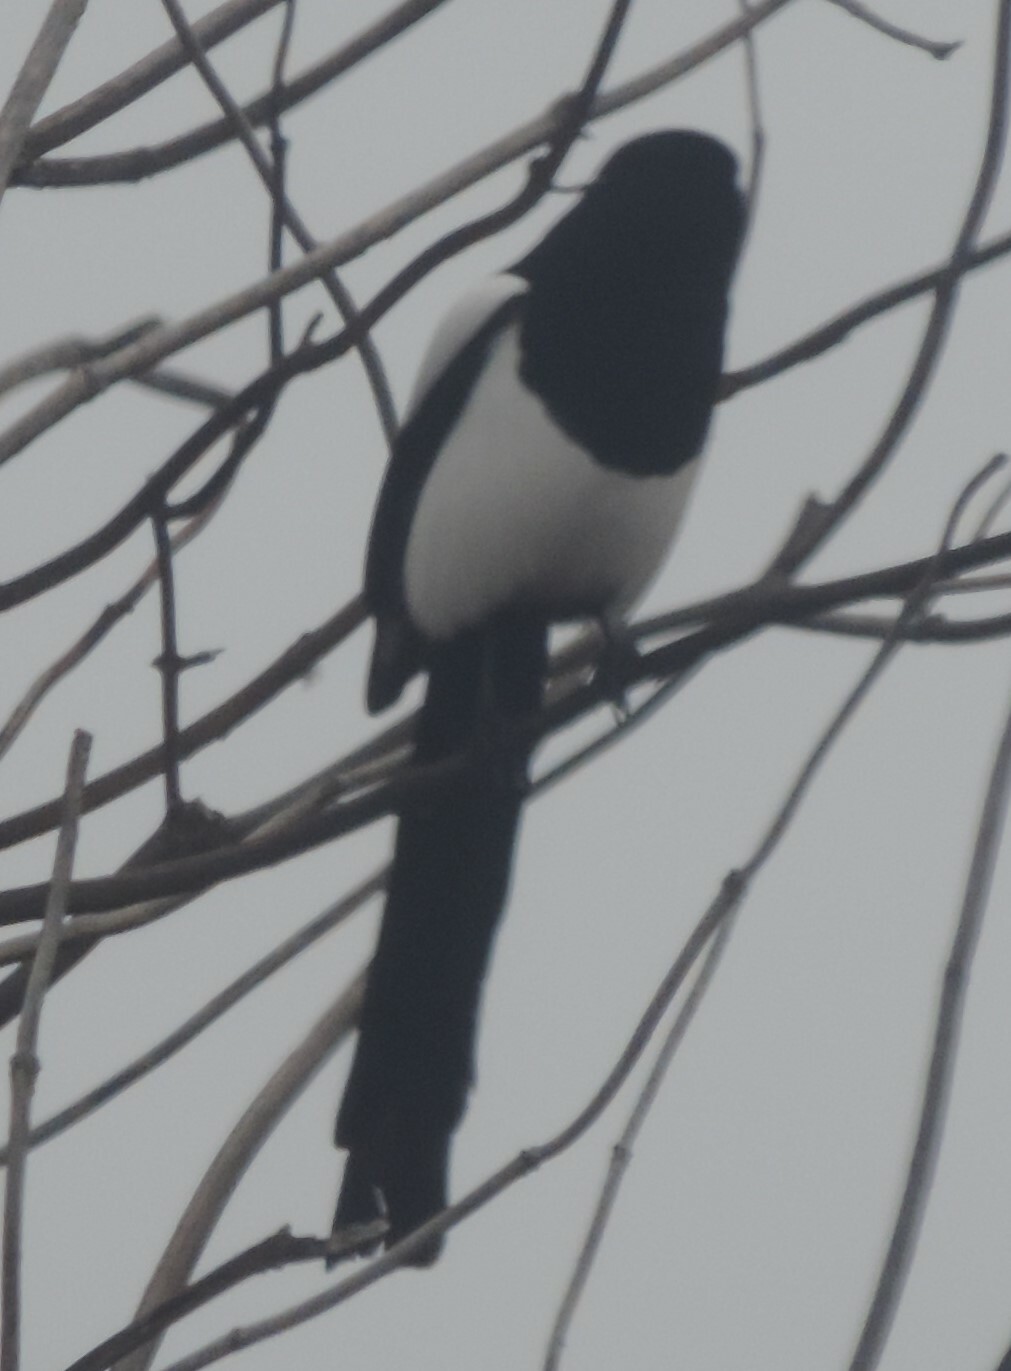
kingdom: Animalia
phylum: Chordata
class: Aves
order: Passeriformes
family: Corvidae
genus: Pica
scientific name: Pica hudsonia
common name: Black-billed magpie
